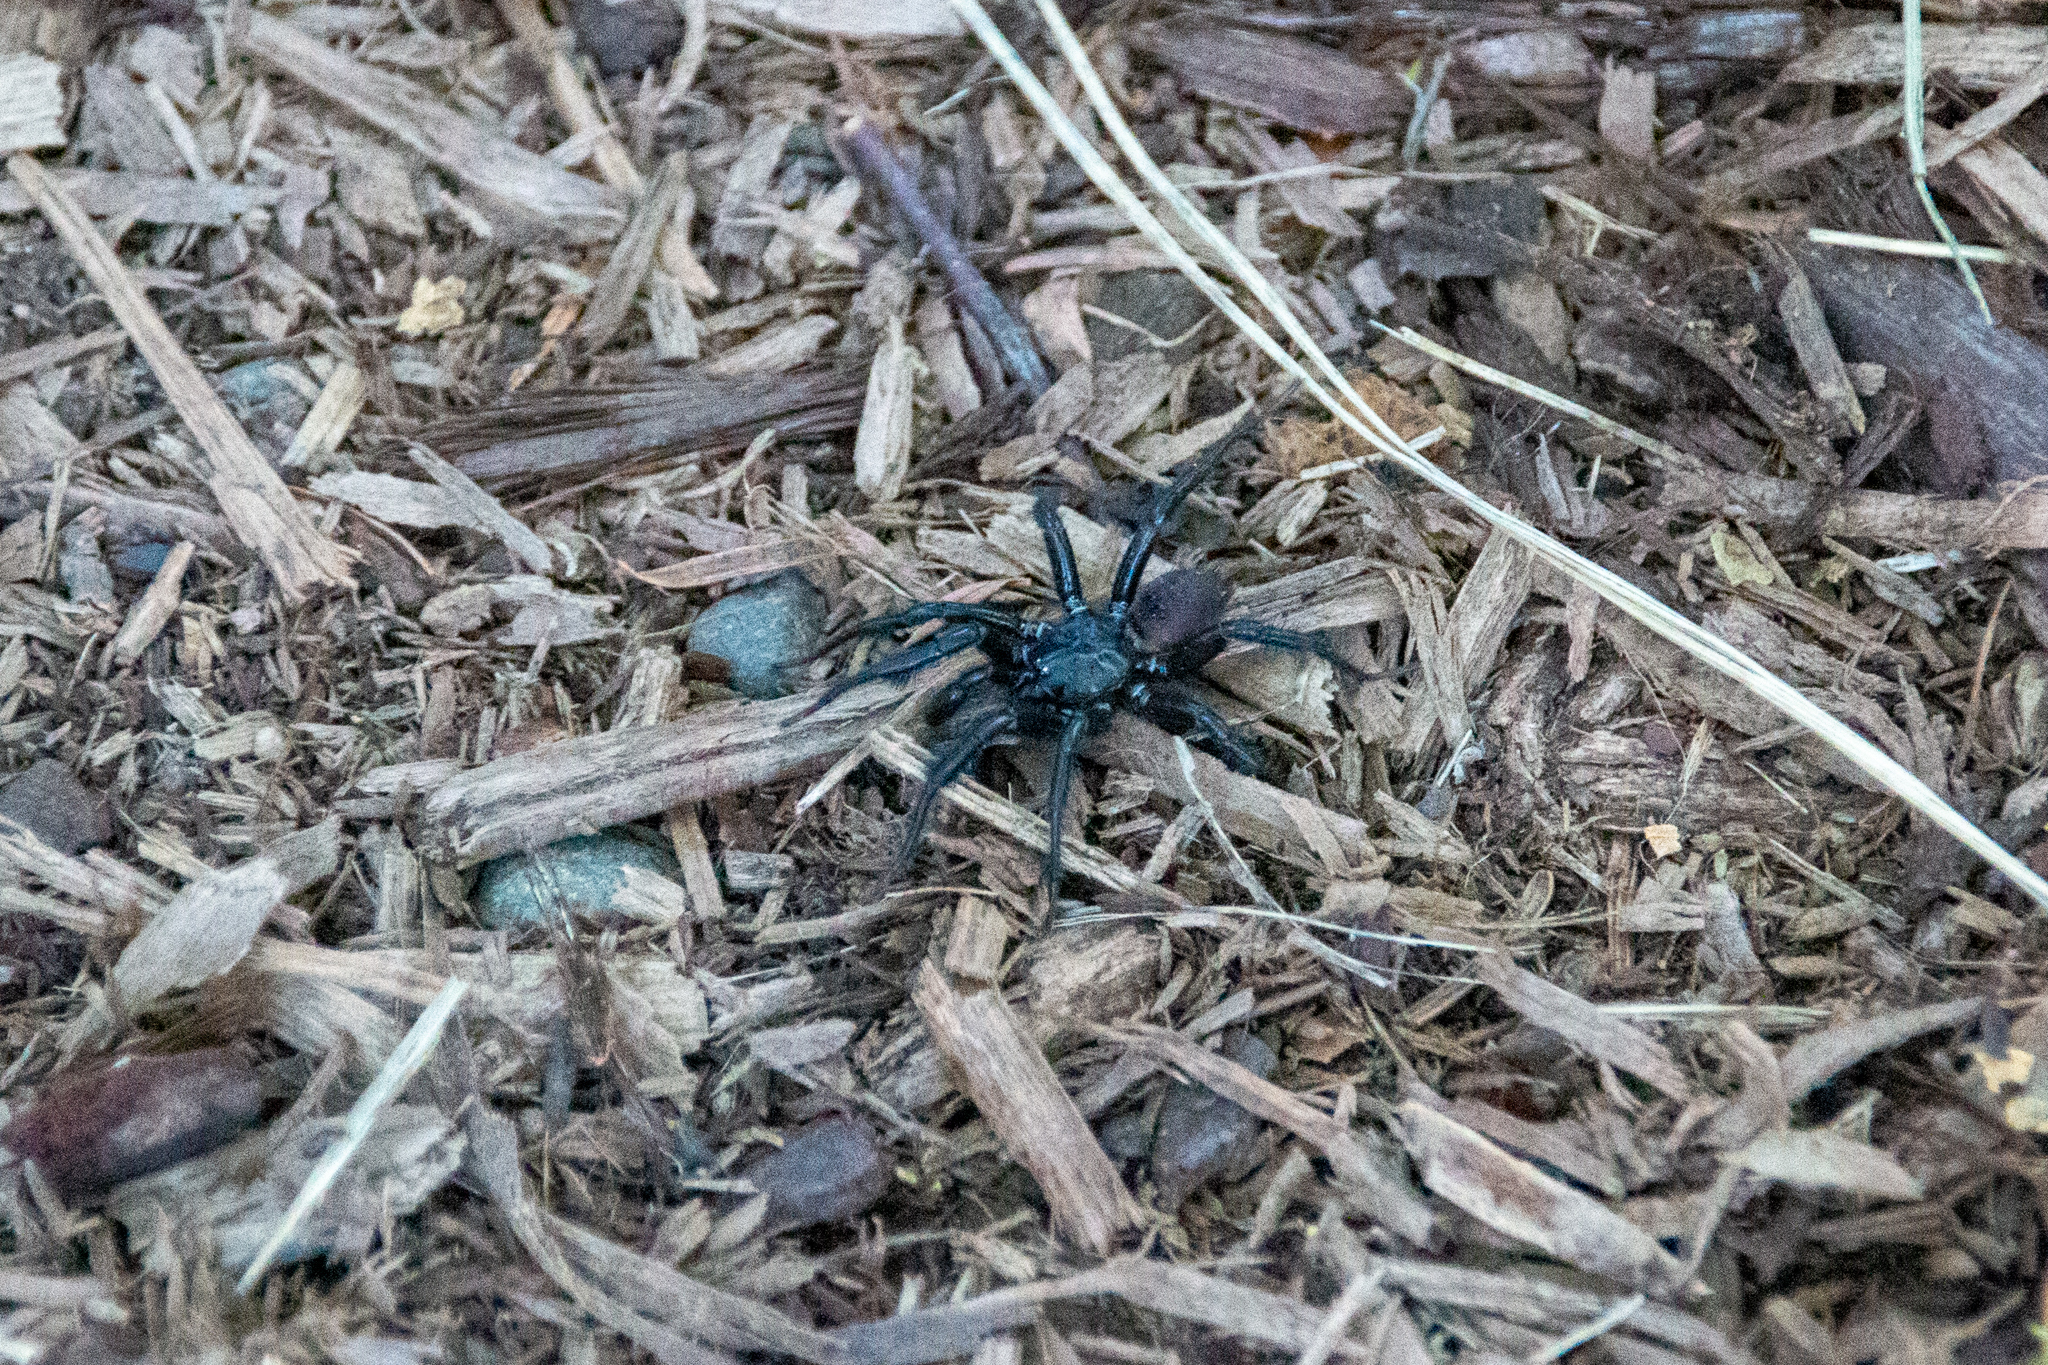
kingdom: Animalia
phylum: Arthropoda
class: Arachnida
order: Araneae
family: Antrodiaetidae
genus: Antrodiaetus
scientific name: Antrodiaetus pacificus
